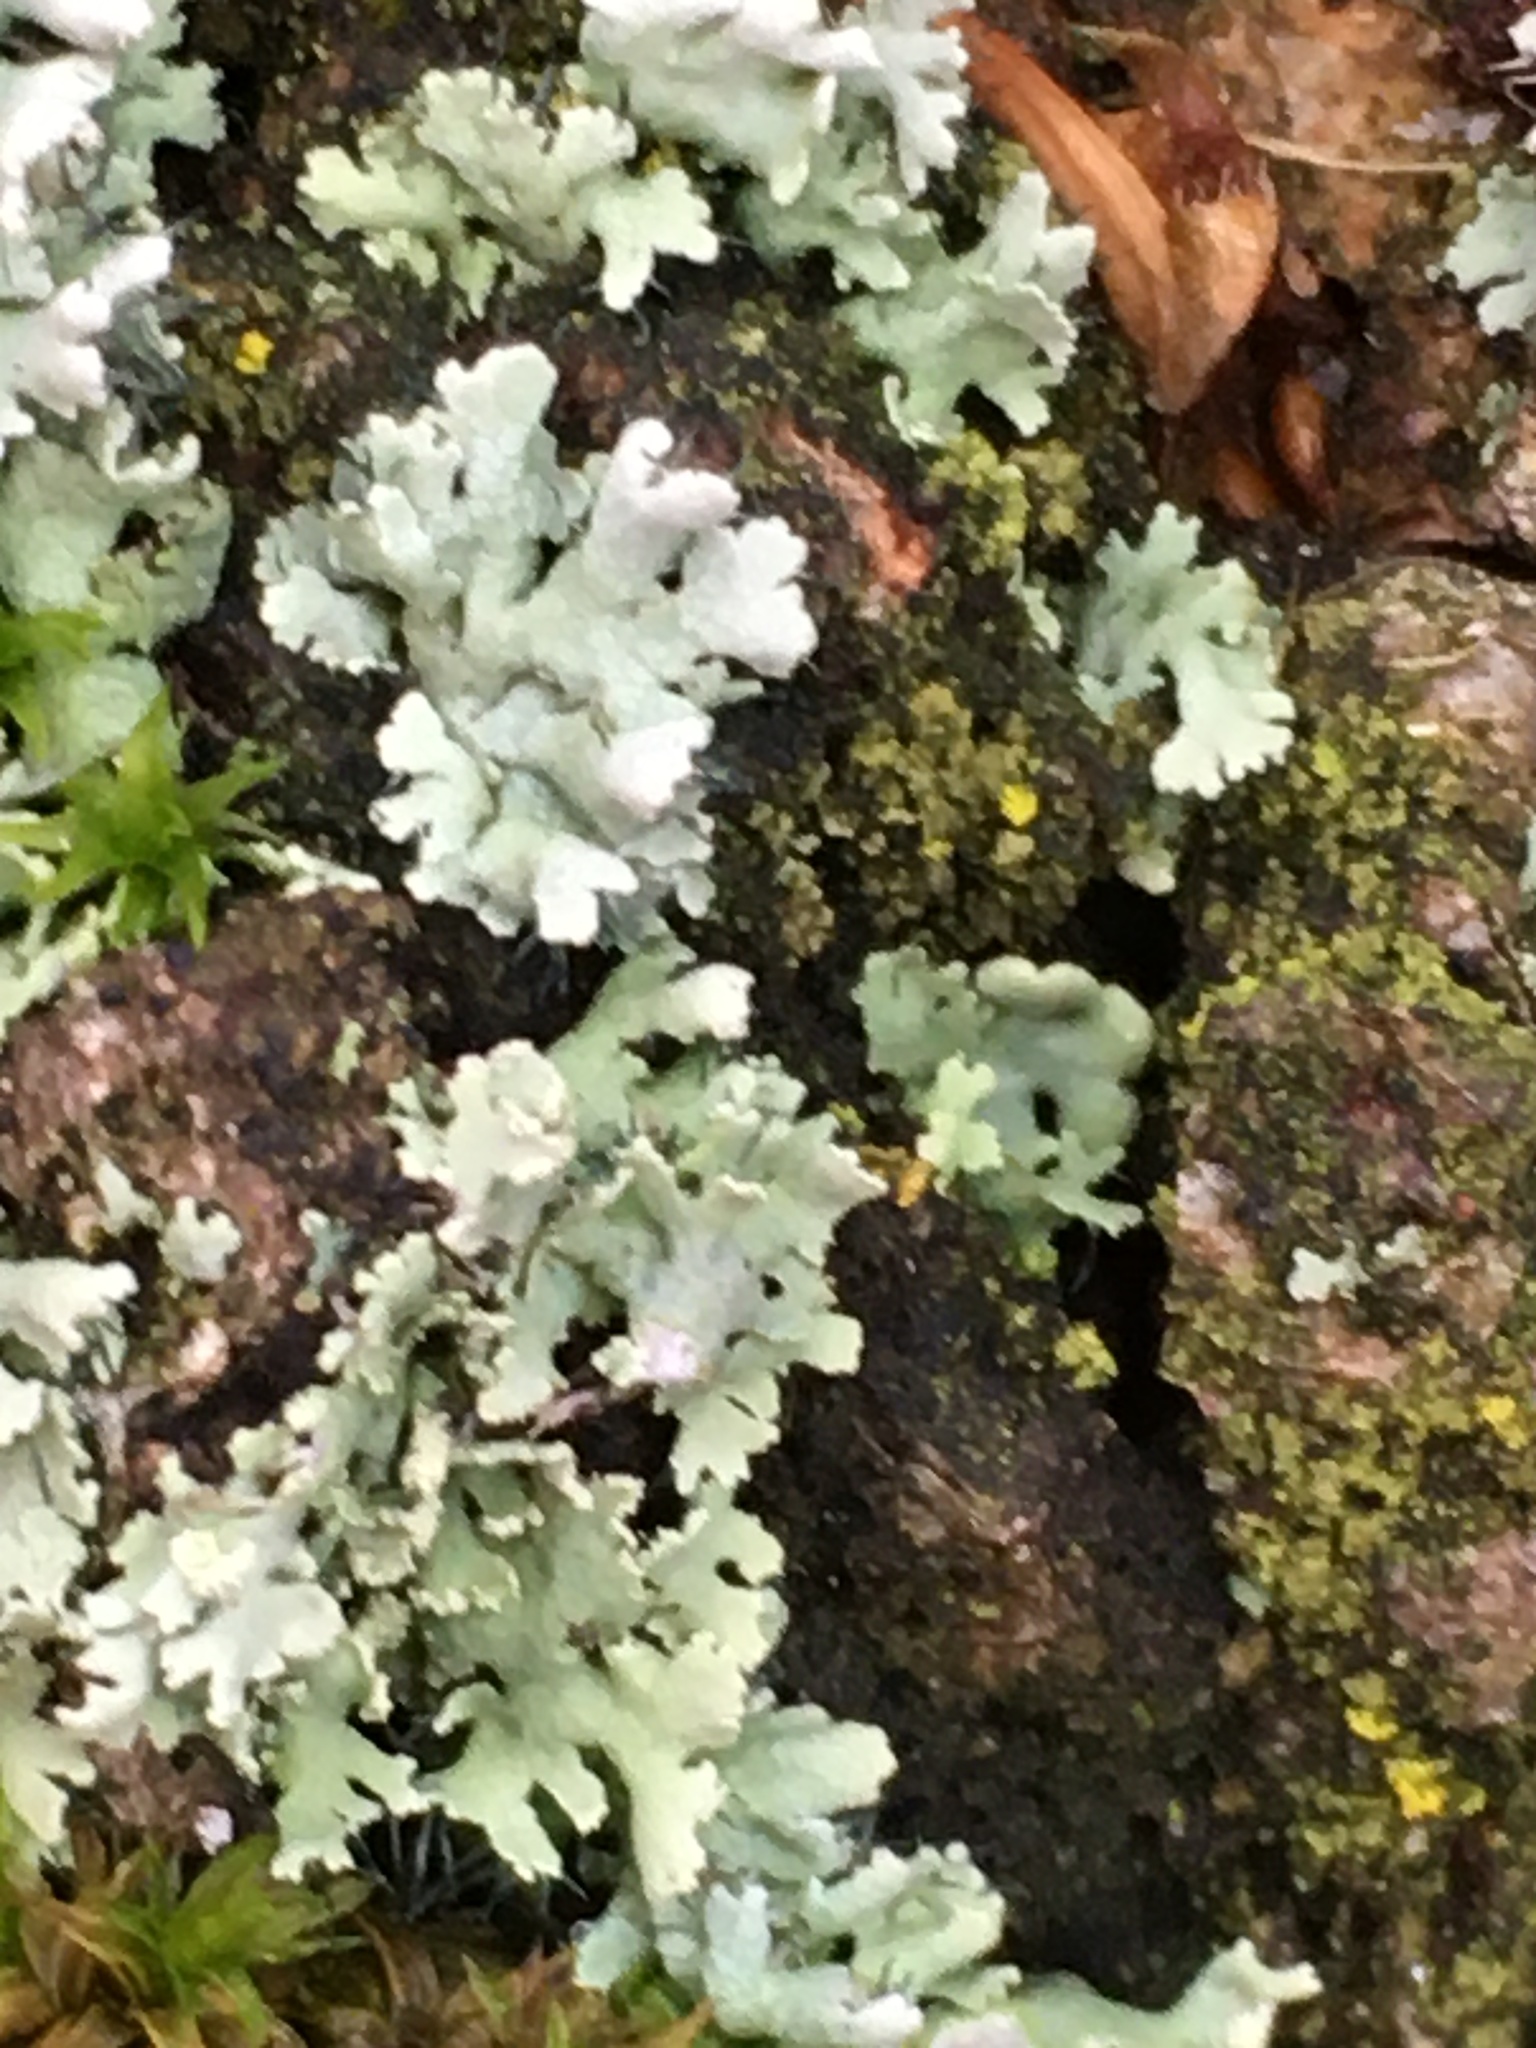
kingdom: Fungi
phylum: Ascomycota
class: Lecanoromycetes
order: Caliciales
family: Physciaceae
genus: Physcia
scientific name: Physcia adscendens
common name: Hooded rosette lichen
